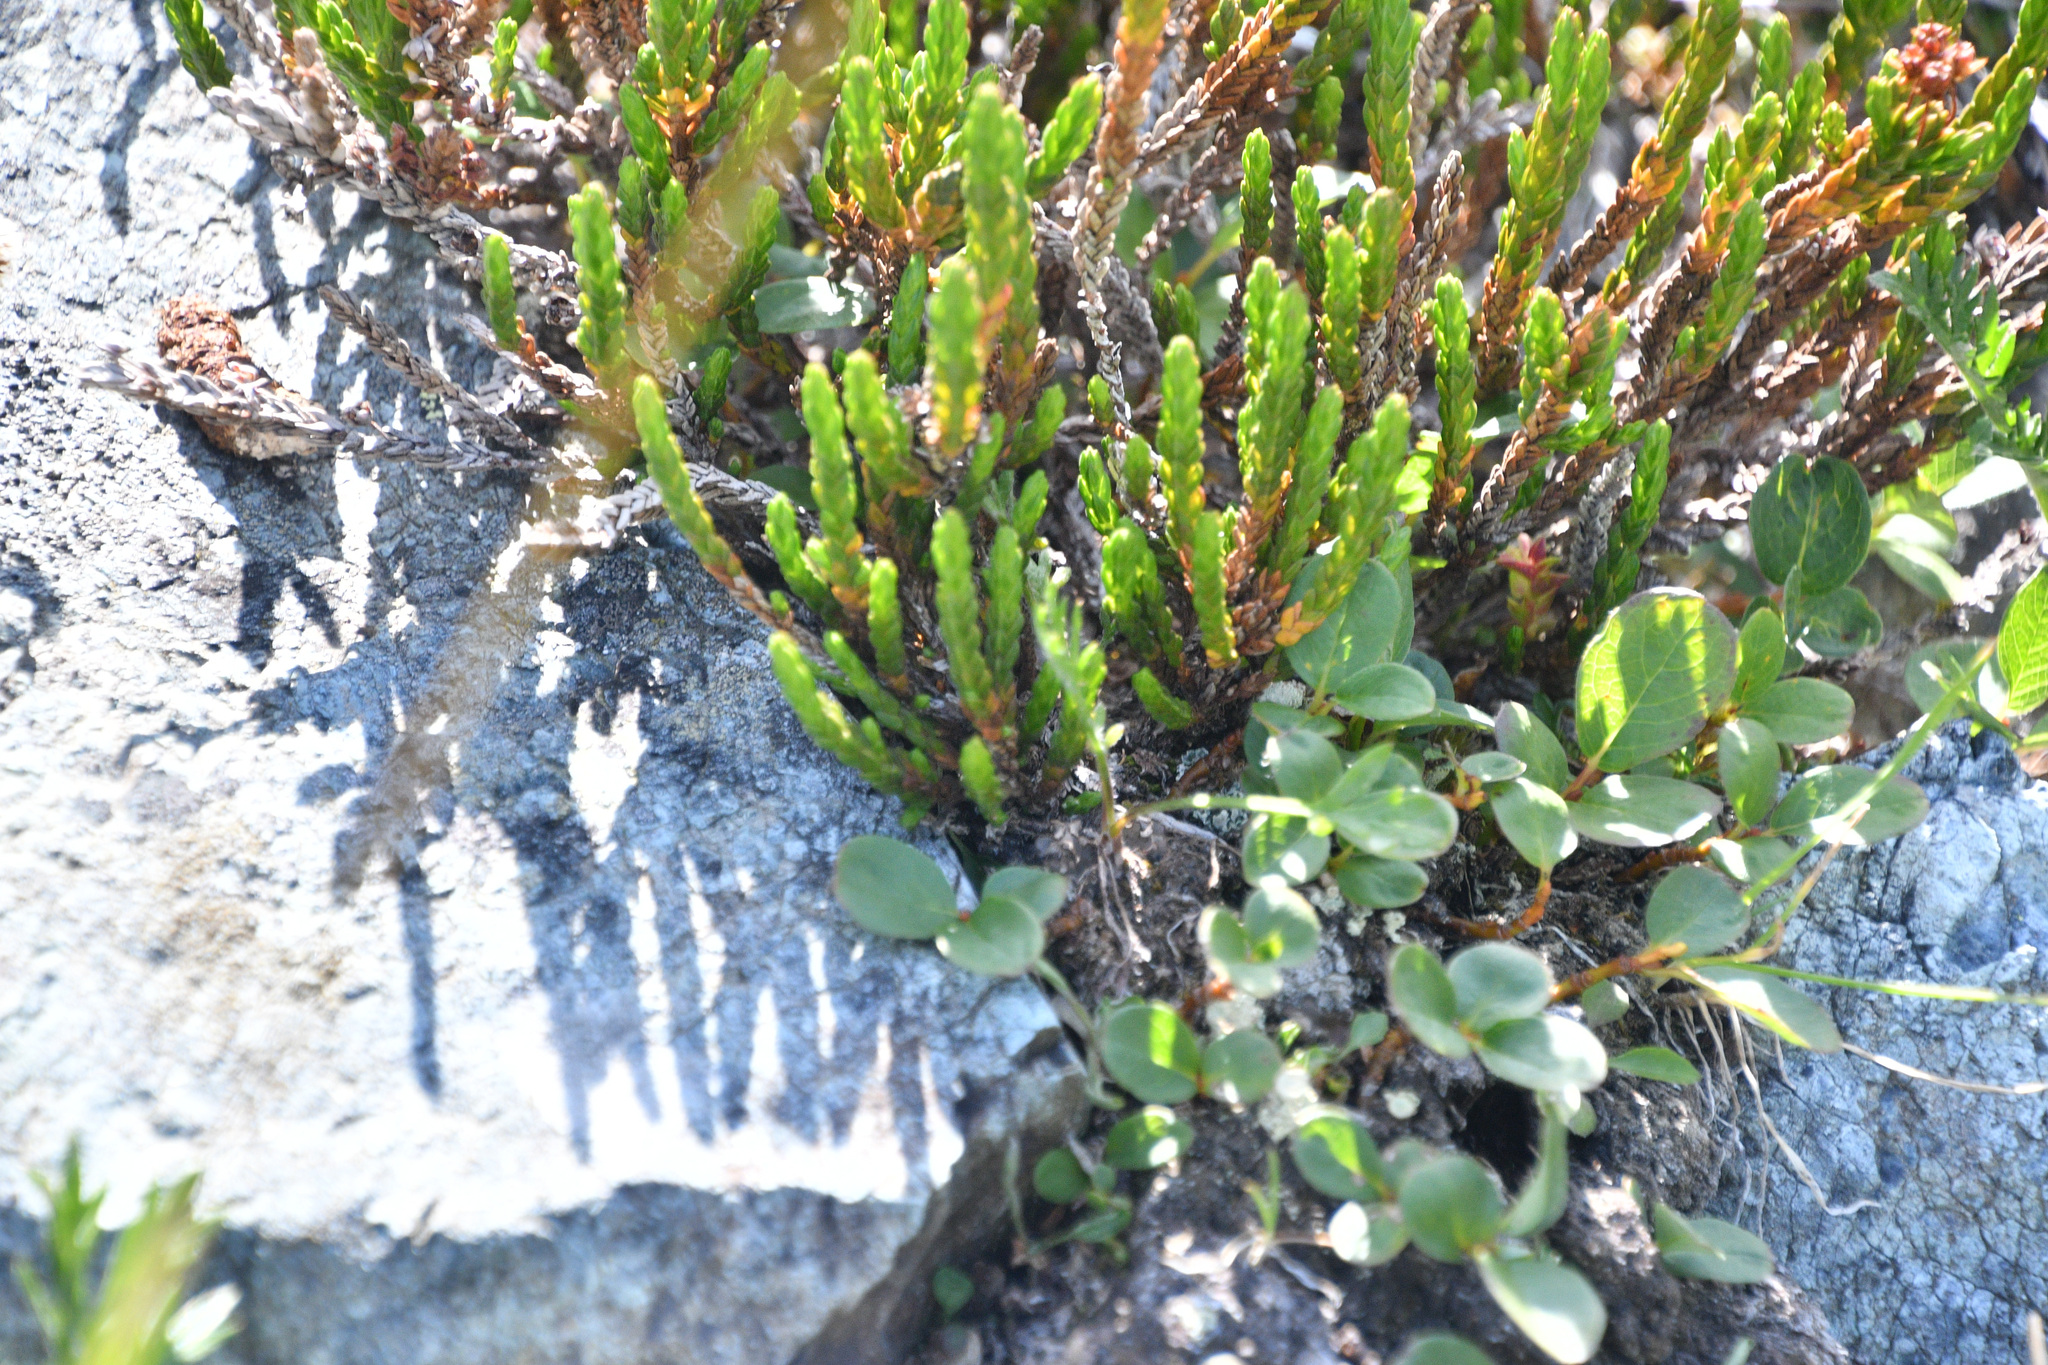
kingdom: Plantae
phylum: Tracheophyta
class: Magnoliopsida
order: Ericales
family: Ericaceae
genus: Cassiope
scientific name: Cassiope tetragona
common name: Arctic bell heather
